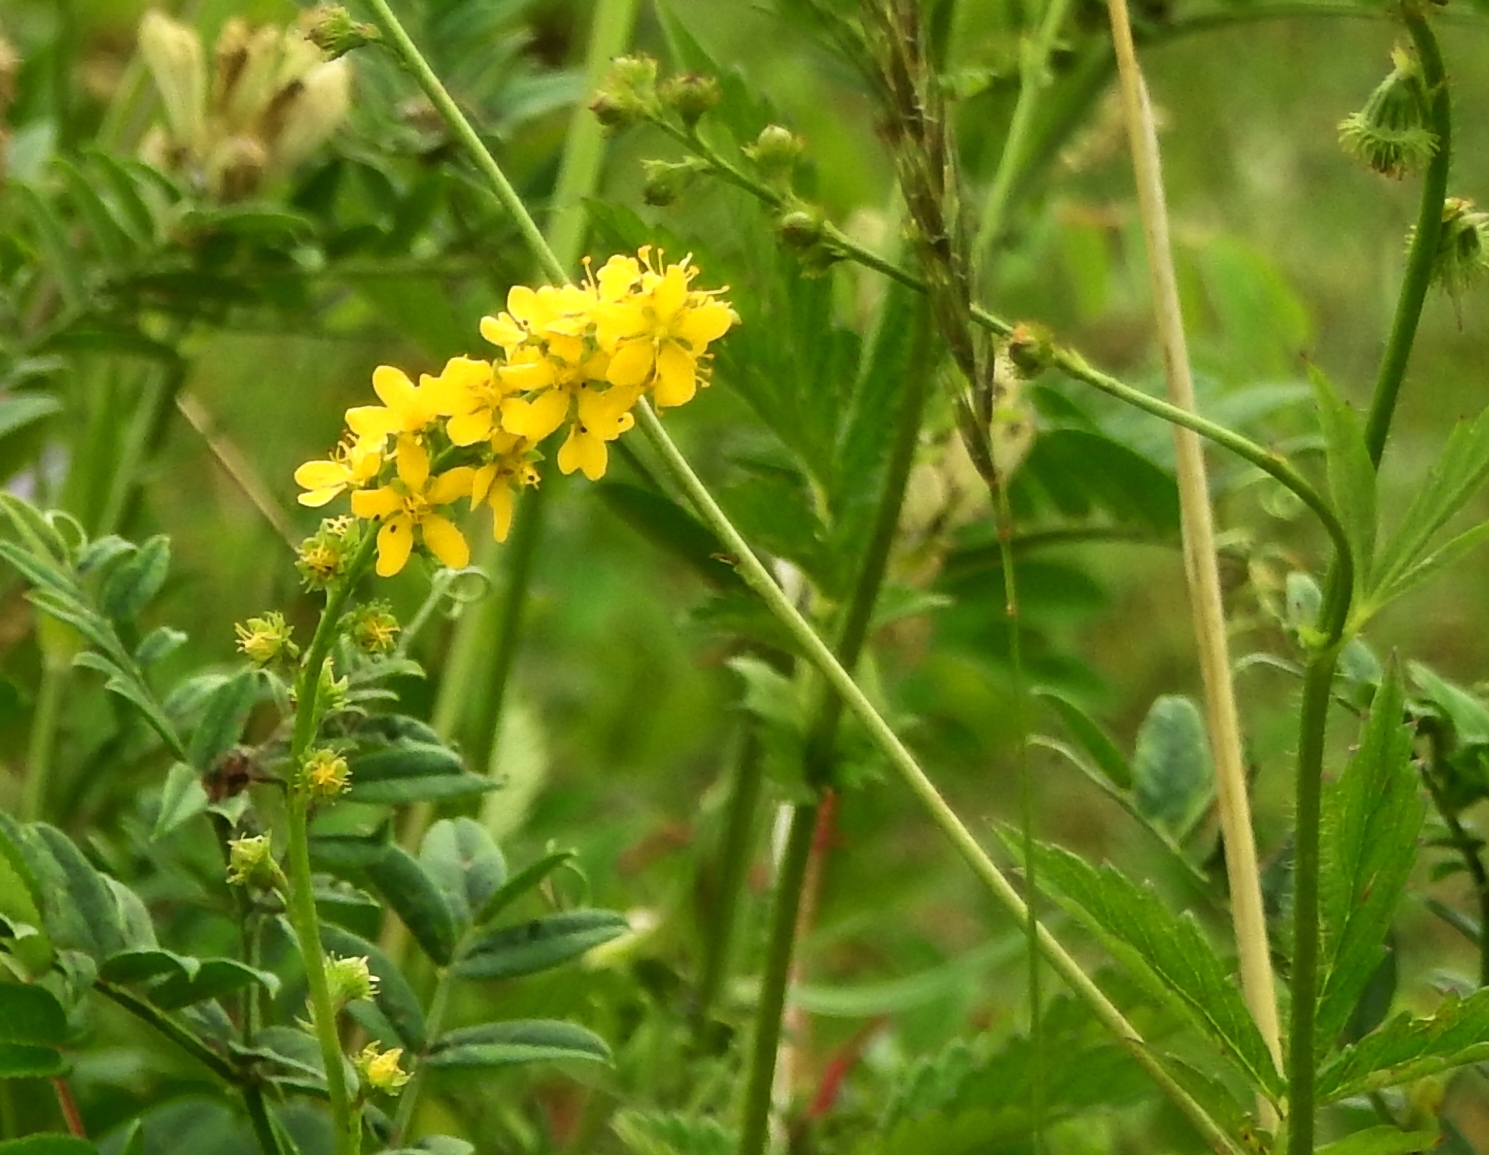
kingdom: Plantae
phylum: Tracheophyta
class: Magnoliopsida
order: Rosales
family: Rosaceae
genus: Agrimonia
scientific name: Agrimonia pilosa
